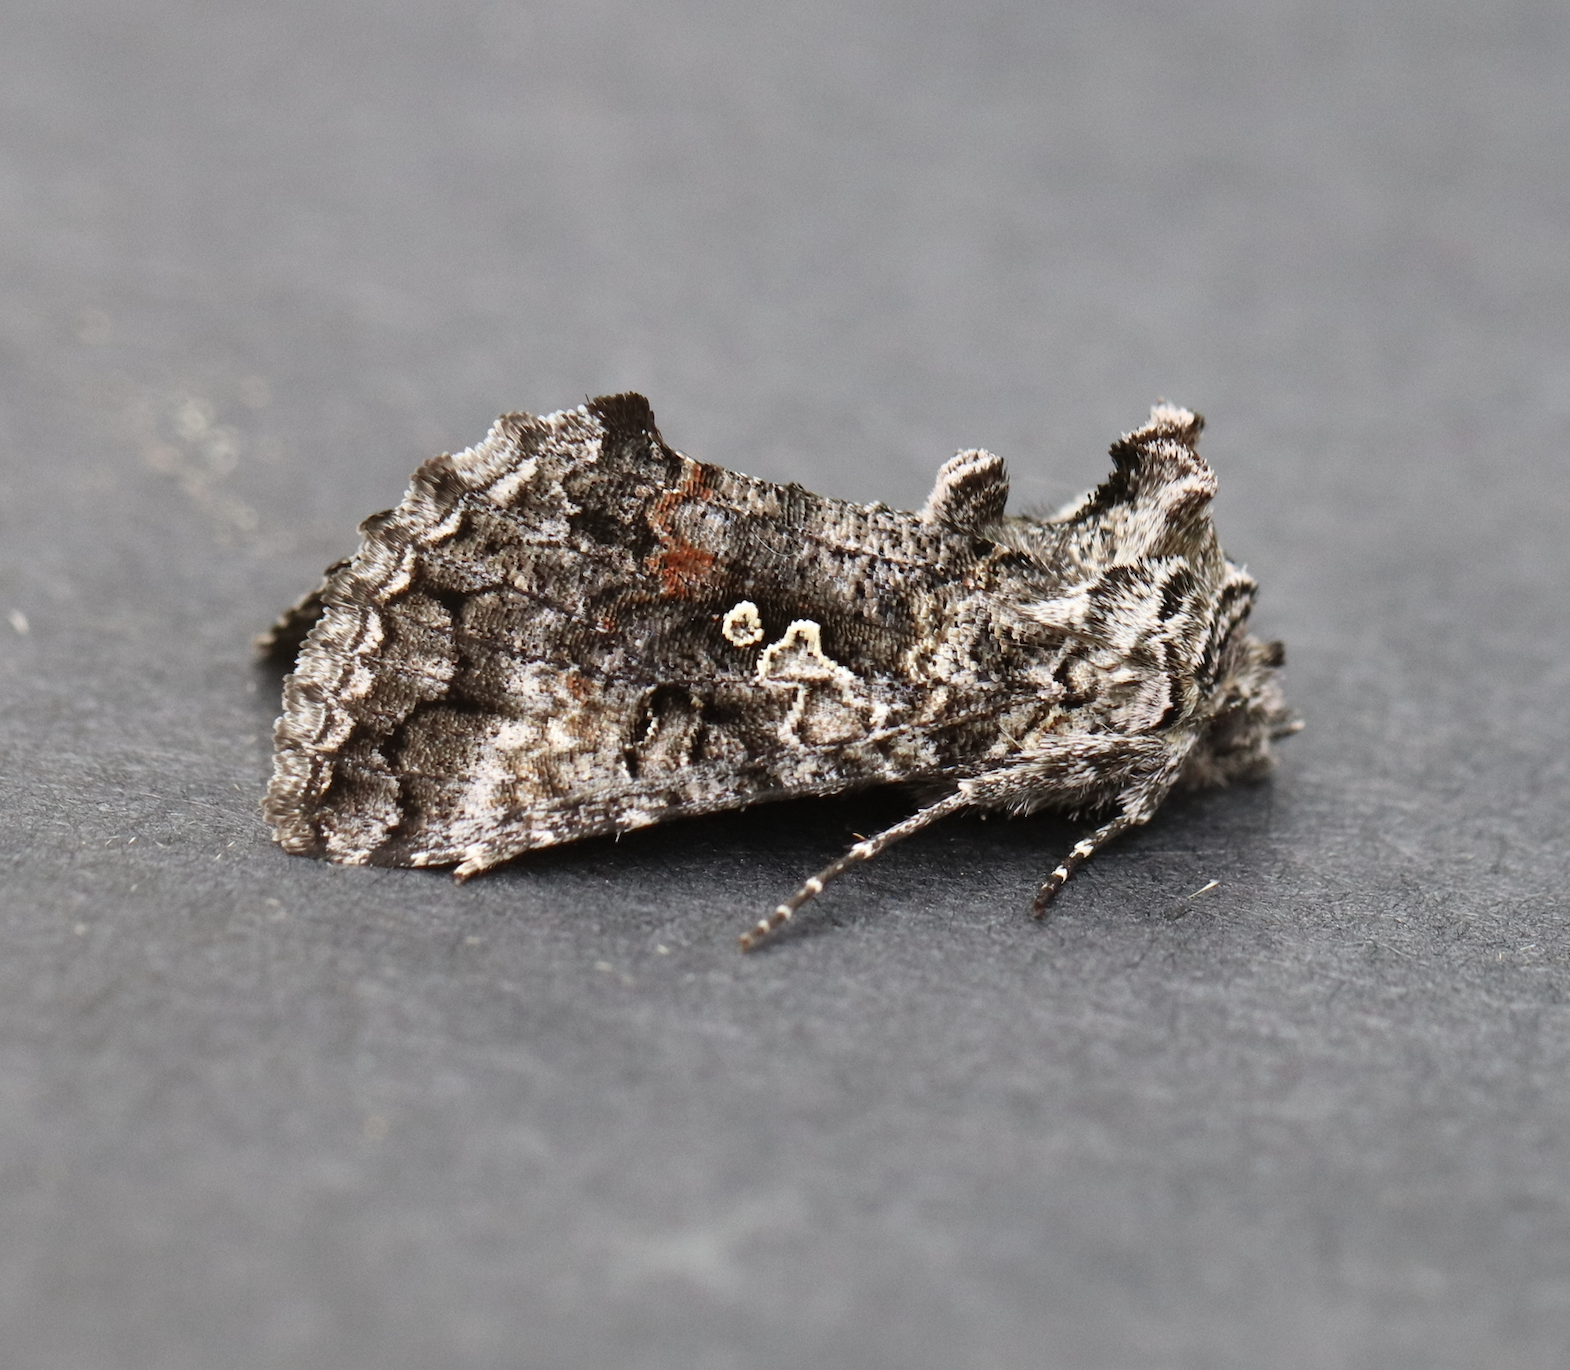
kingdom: Animalia
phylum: Arthropoda
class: Insecta
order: Lepidoptera
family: Noctuidae
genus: Syngrapha
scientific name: Syngrapha octoscripta
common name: Dusky silver y moth
